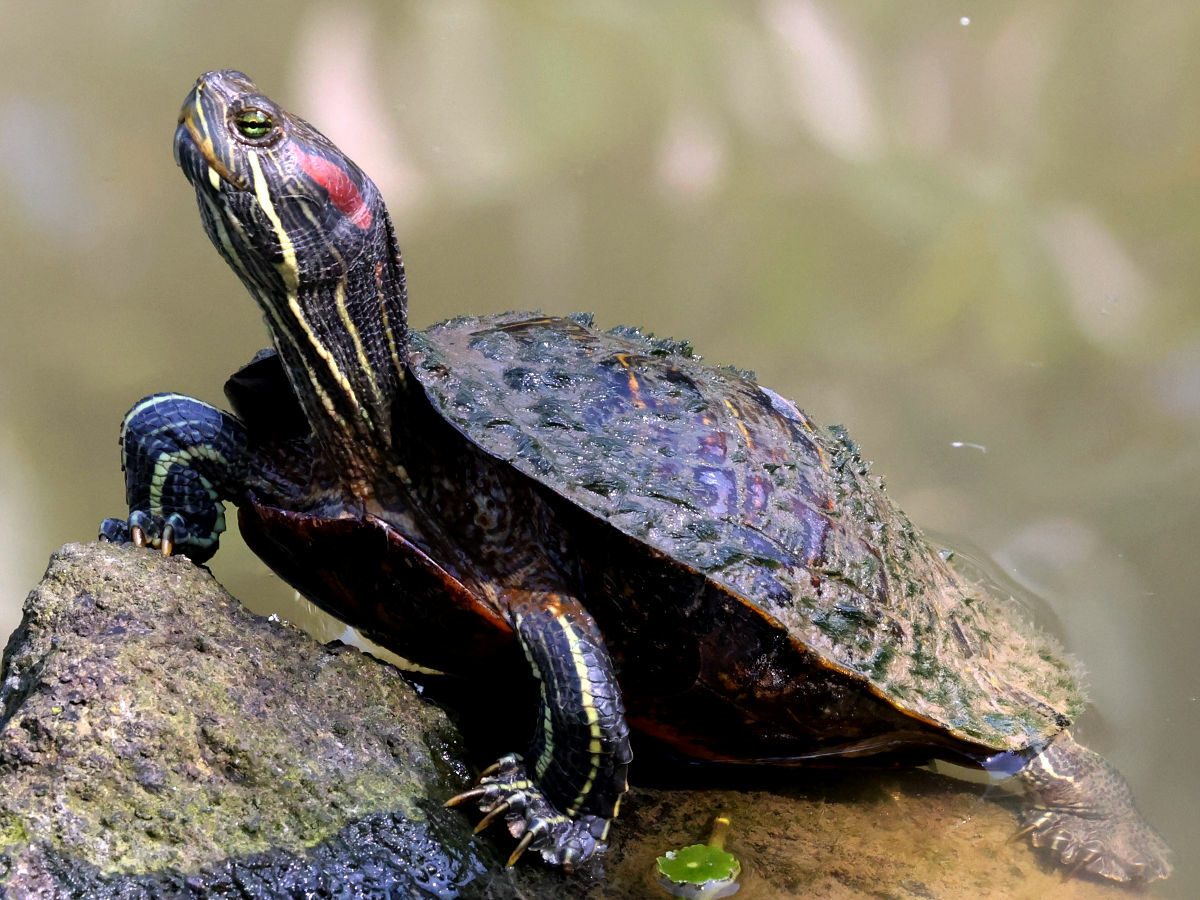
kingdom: Animalia
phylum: Chordata
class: Testudines
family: Emydidae
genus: Trachemys
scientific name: Trachemys scripta
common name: Slider
